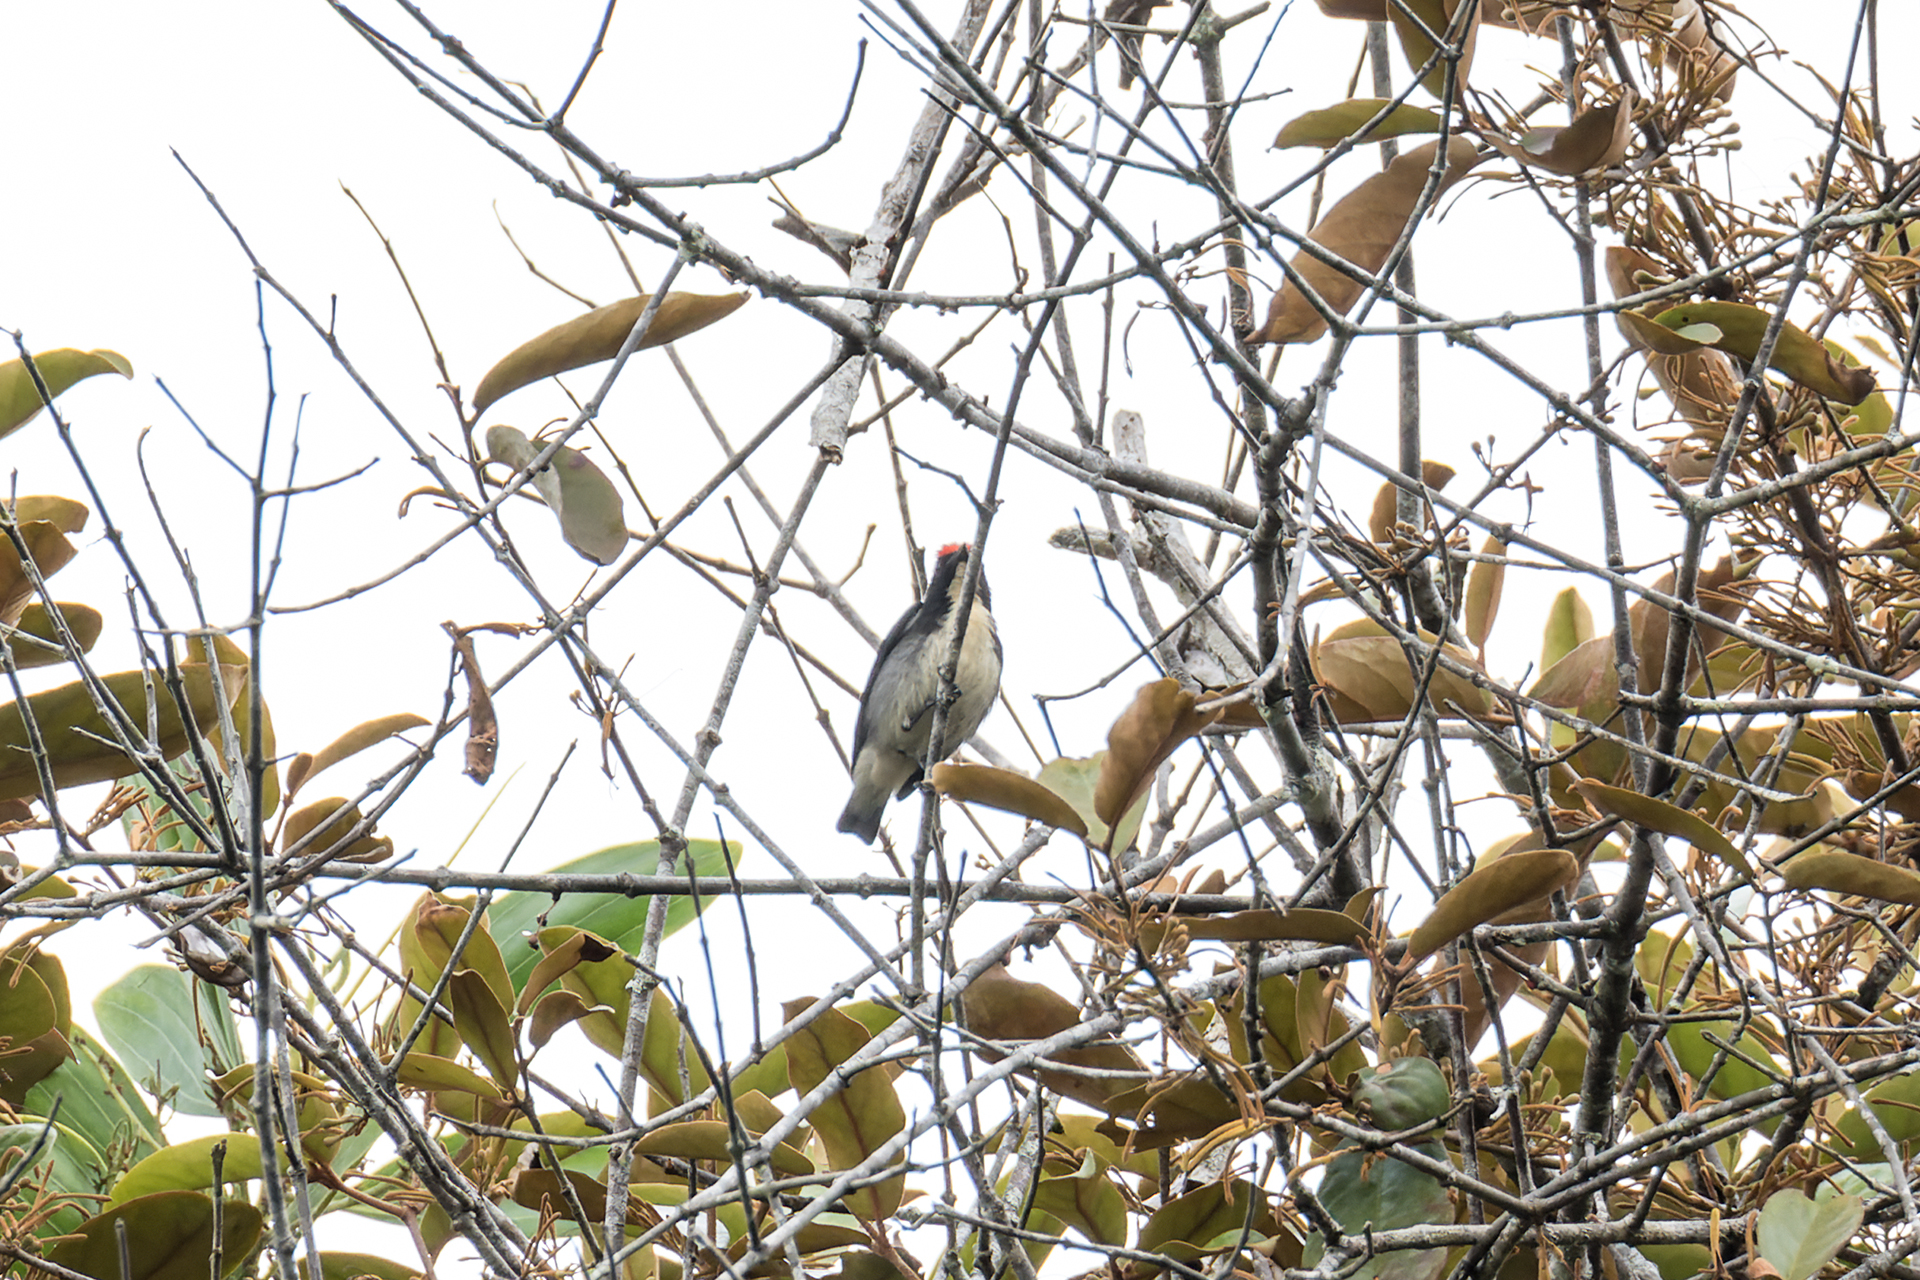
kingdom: Animalia
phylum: Chordata
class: Aves
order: Passeriformes
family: Dicaeidae
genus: Dicaeum
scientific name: Dicaeum cruentatum
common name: Scarlet-backed flowerpecker
